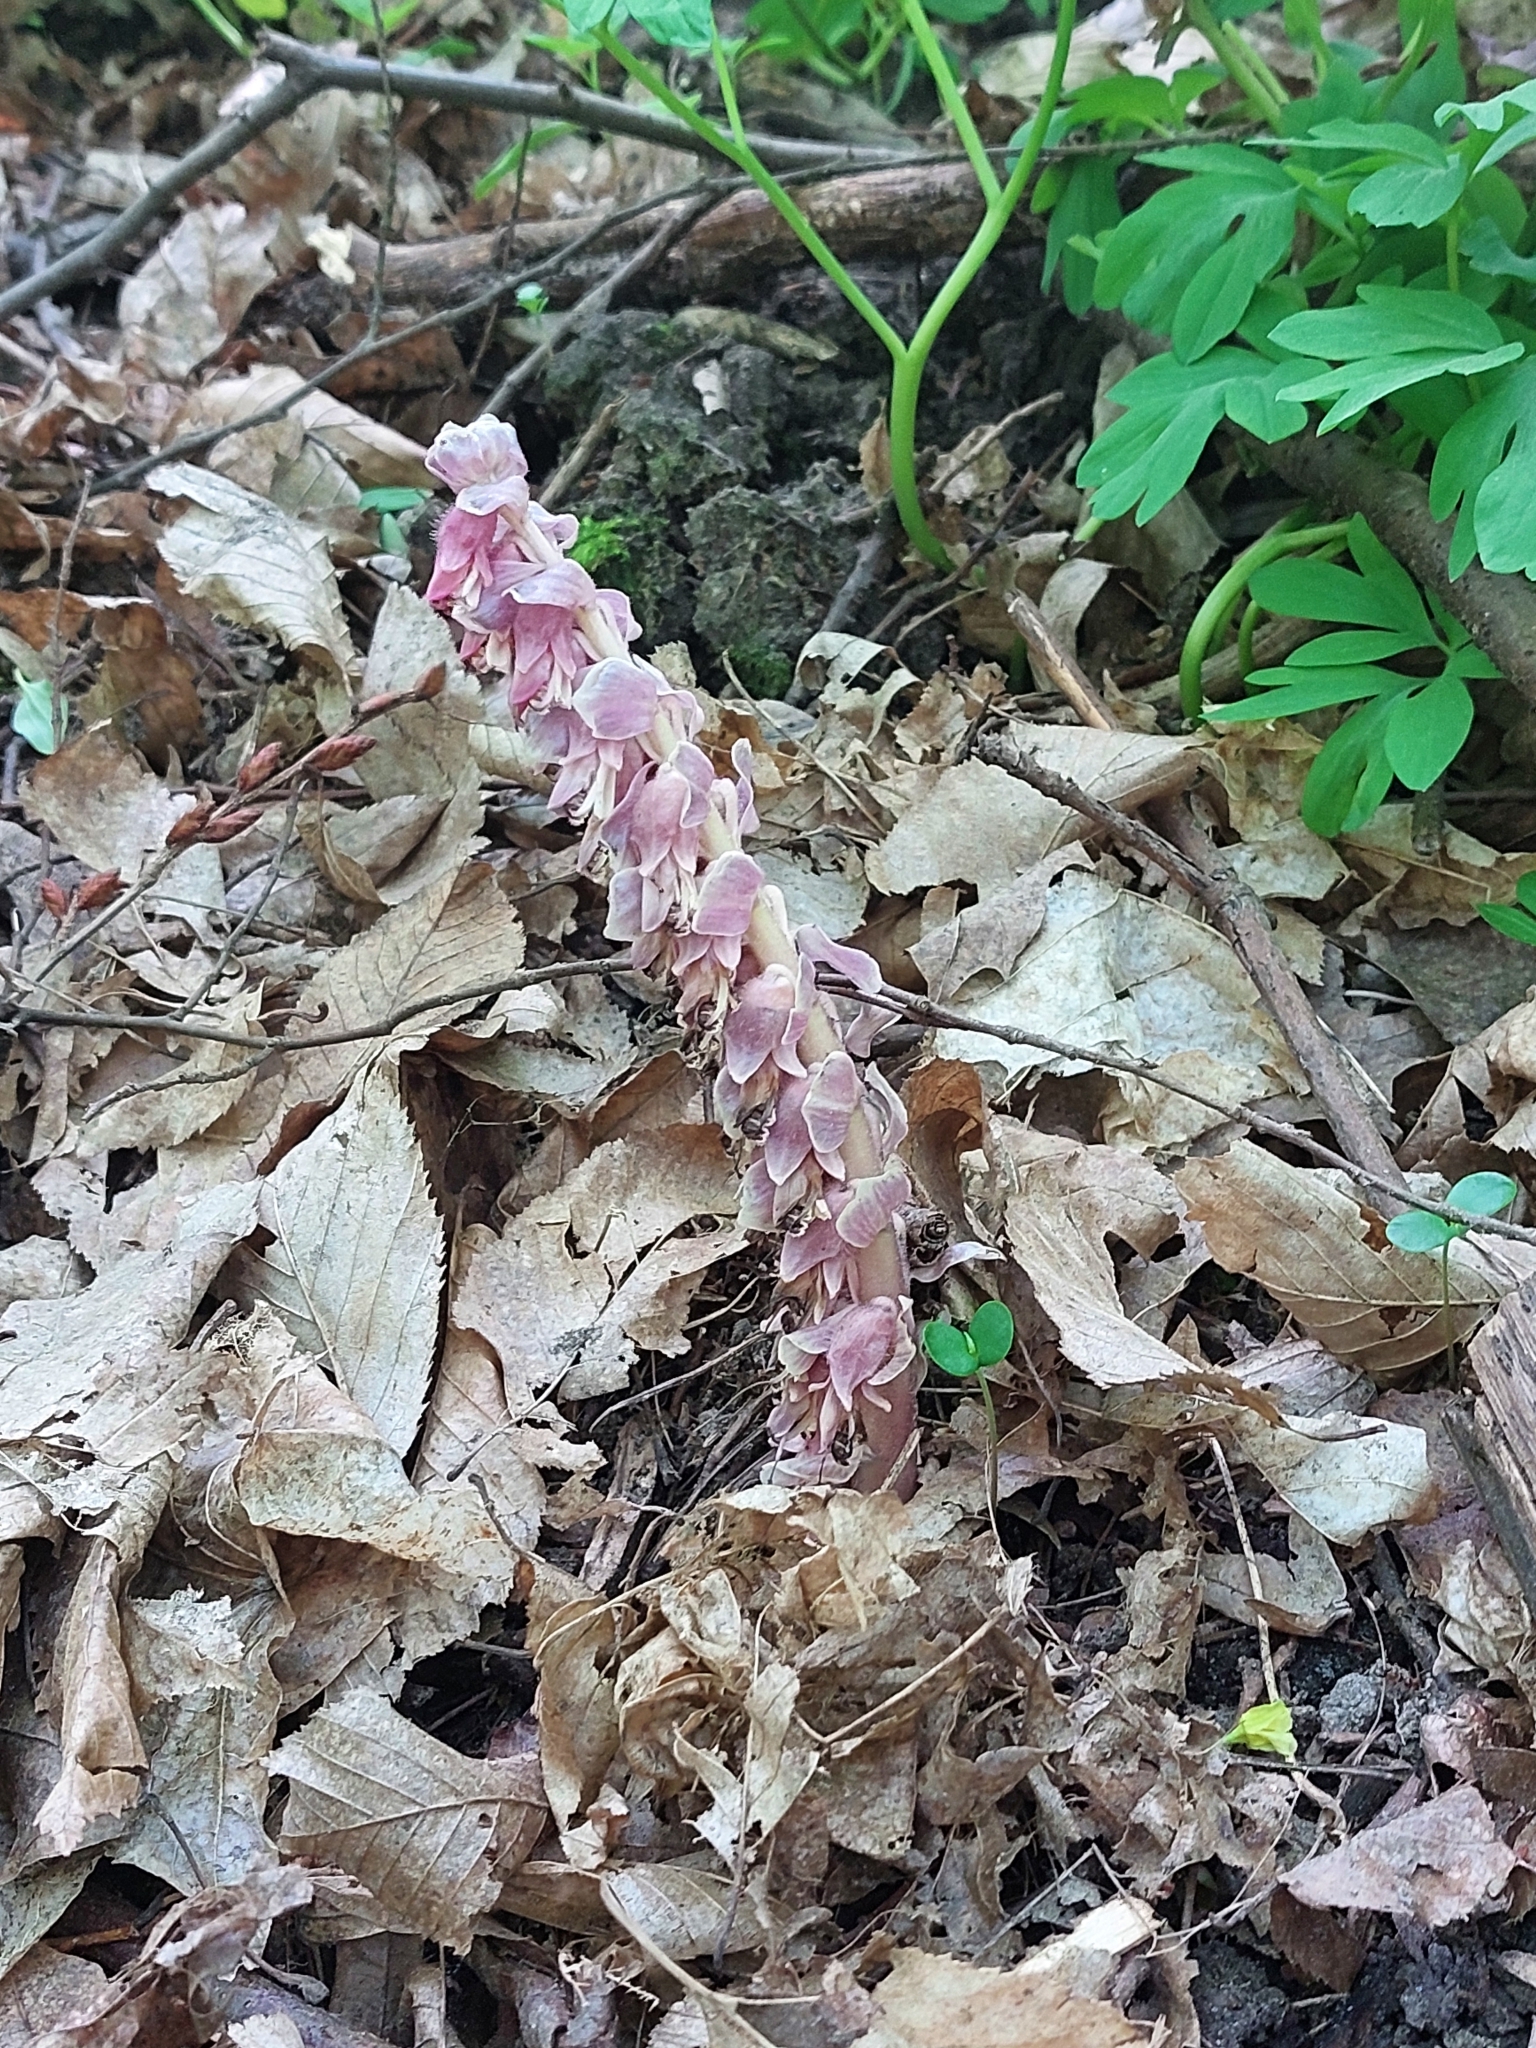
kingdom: Plantae
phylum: Tracheophyta
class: Magnoliopsida
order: Lamiales
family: Orobanchaceae
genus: Lathraea
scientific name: Lathraea squamaria
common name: Toothwort
